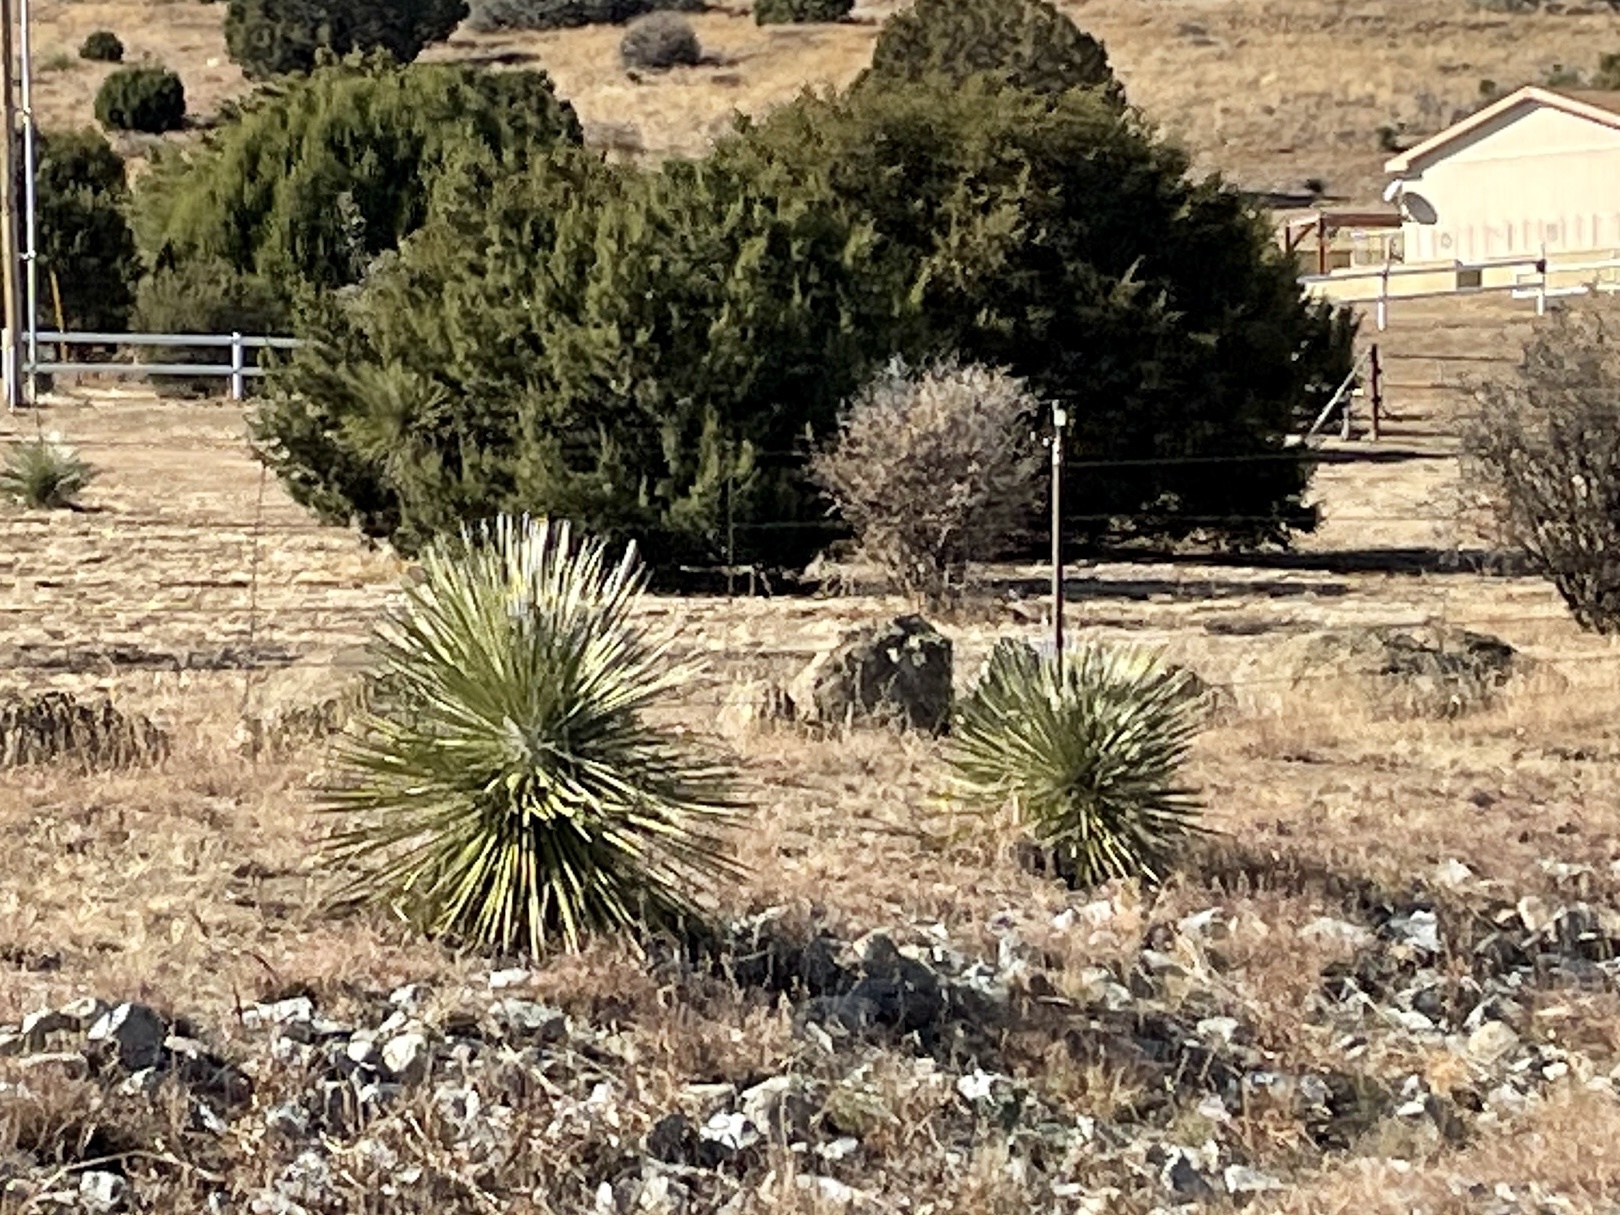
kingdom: Plantae
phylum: Tracheophyta
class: Liliopsida
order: Asparagales
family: Asparagaceae
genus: Yucca
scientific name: Yucca elata
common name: Palmella
